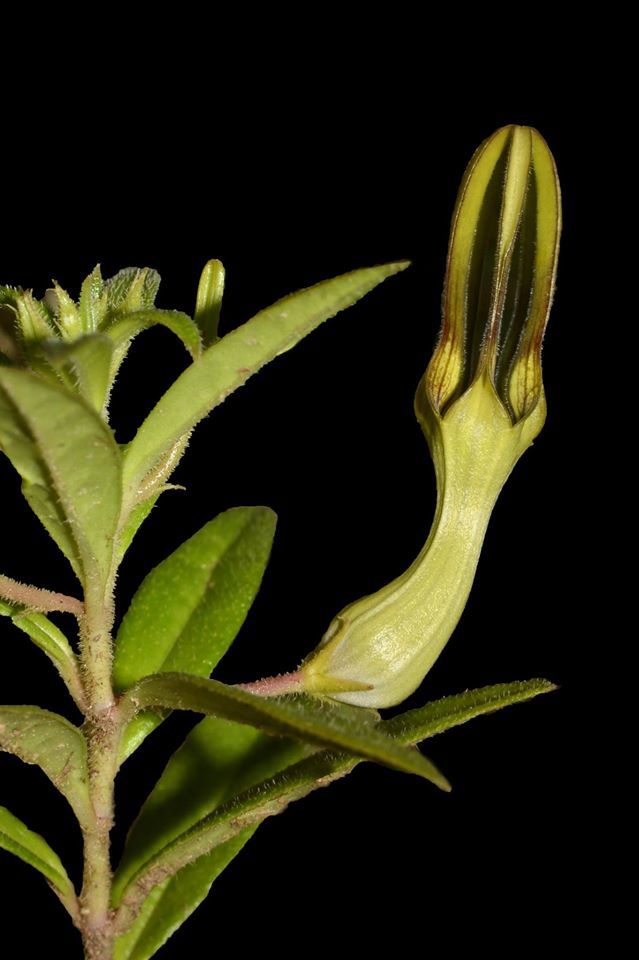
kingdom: Plantae
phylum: Tracheophyta
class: Magnoliopsida
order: Gentianales
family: Apocynaceae
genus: Ceropegia
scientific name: Ceropegia attenuata
